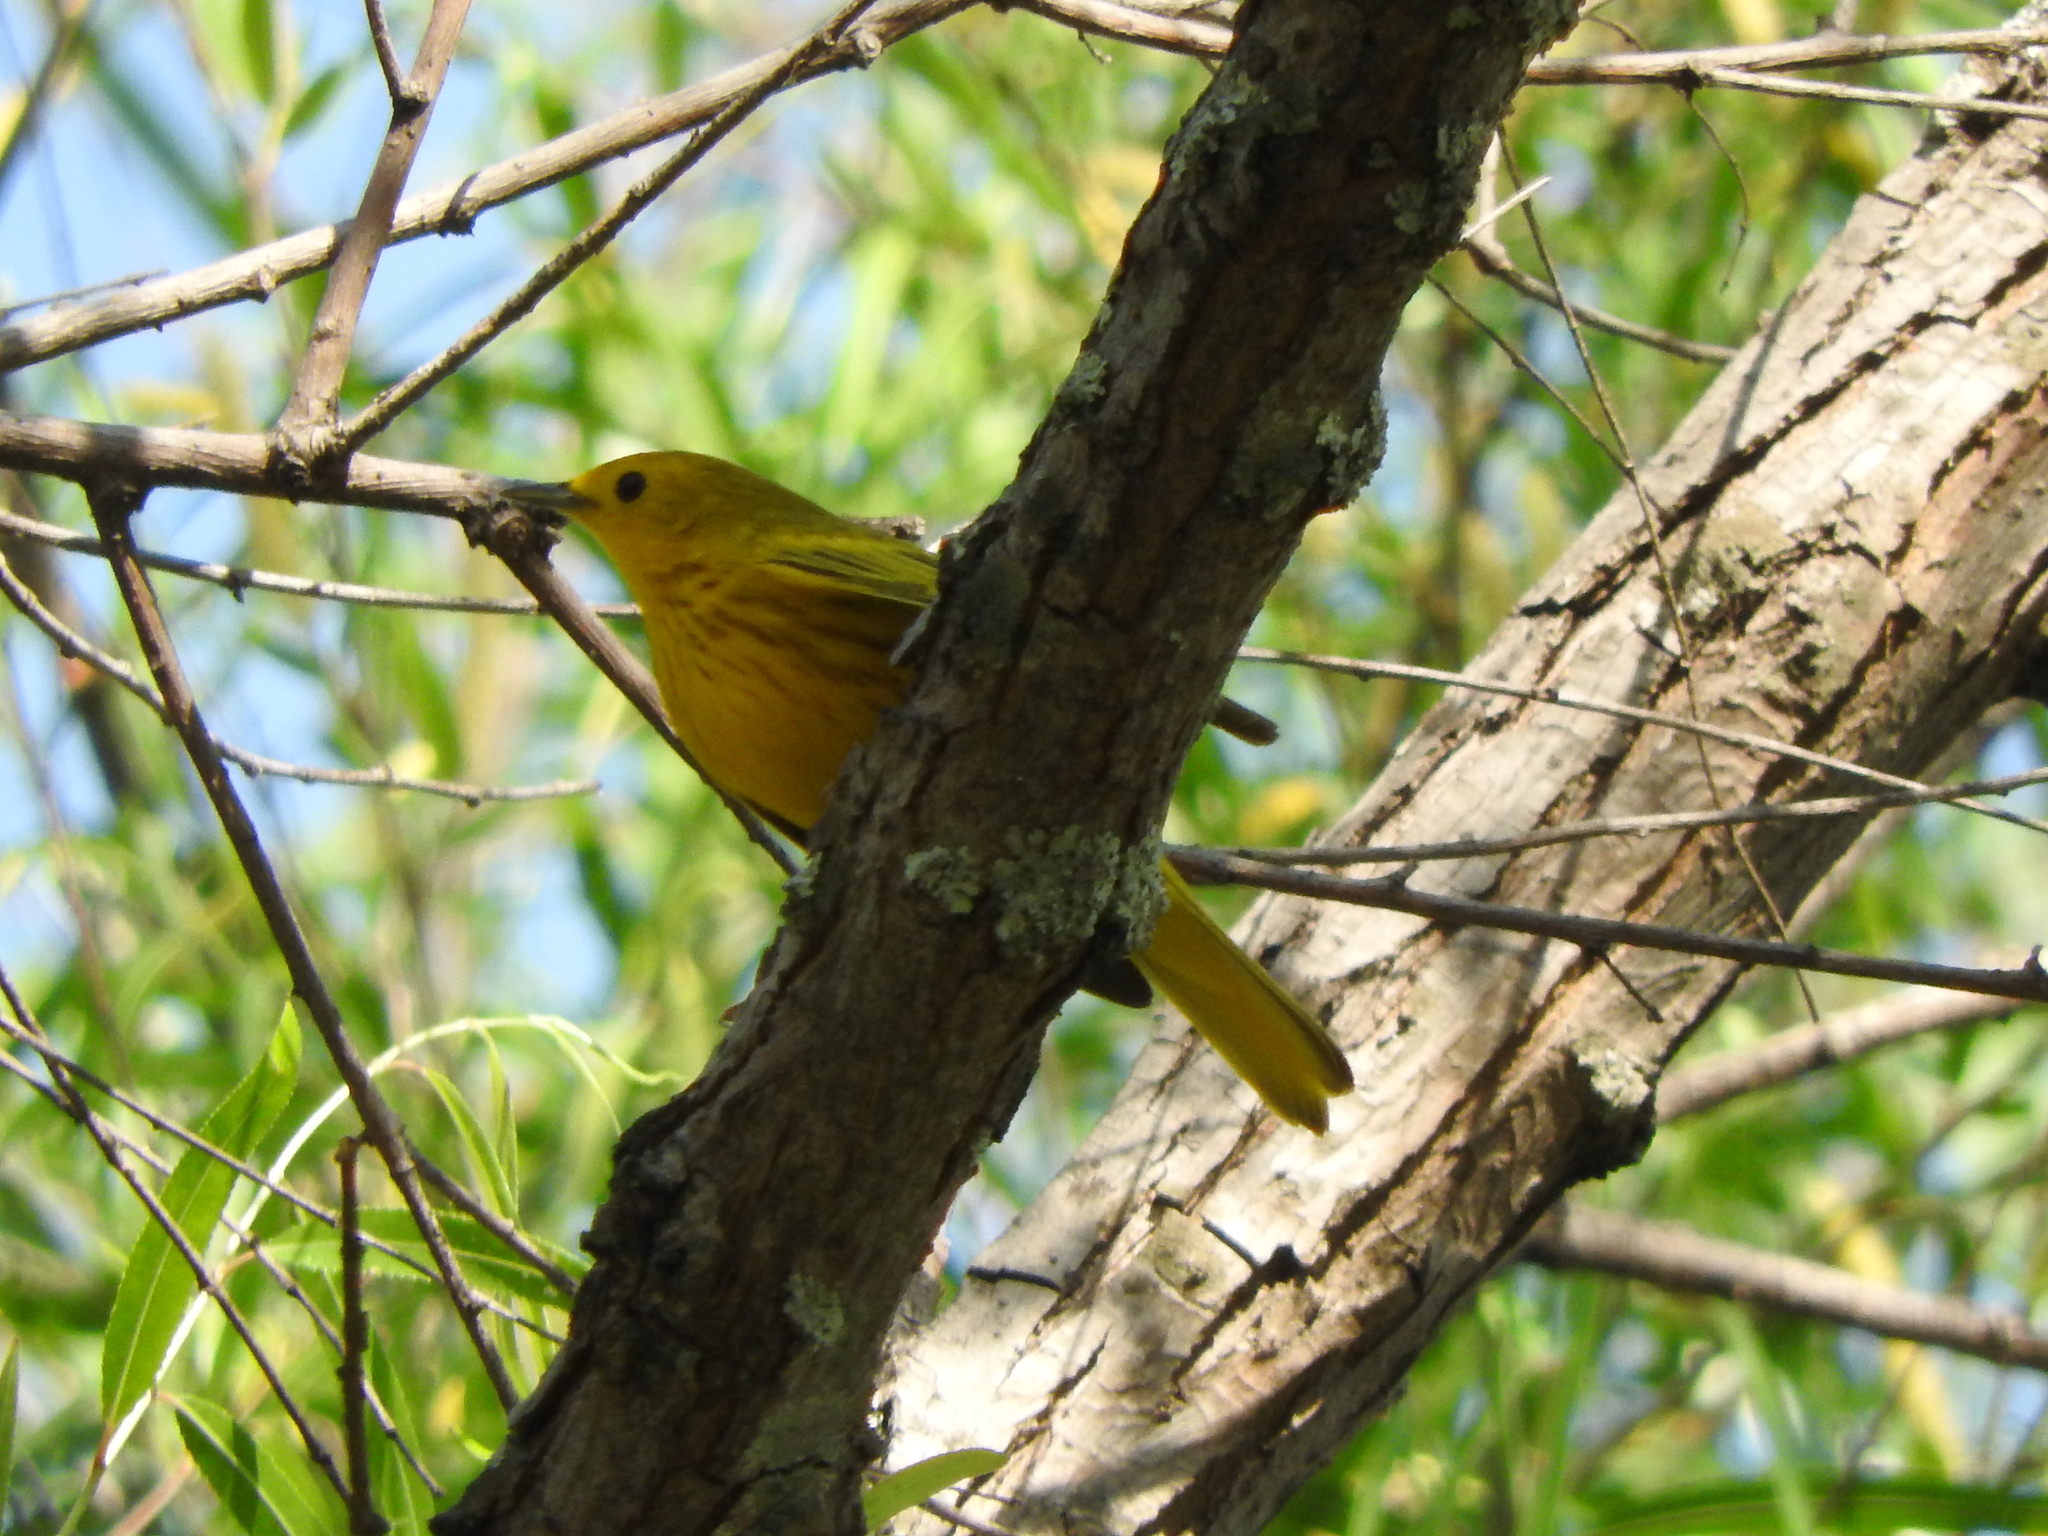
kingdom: Animalia
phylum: Chordata
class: Aves
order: Passeriformes
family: Parulidae
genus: Setophaga
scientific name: Setophaga petechia
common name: Yellow warbler
